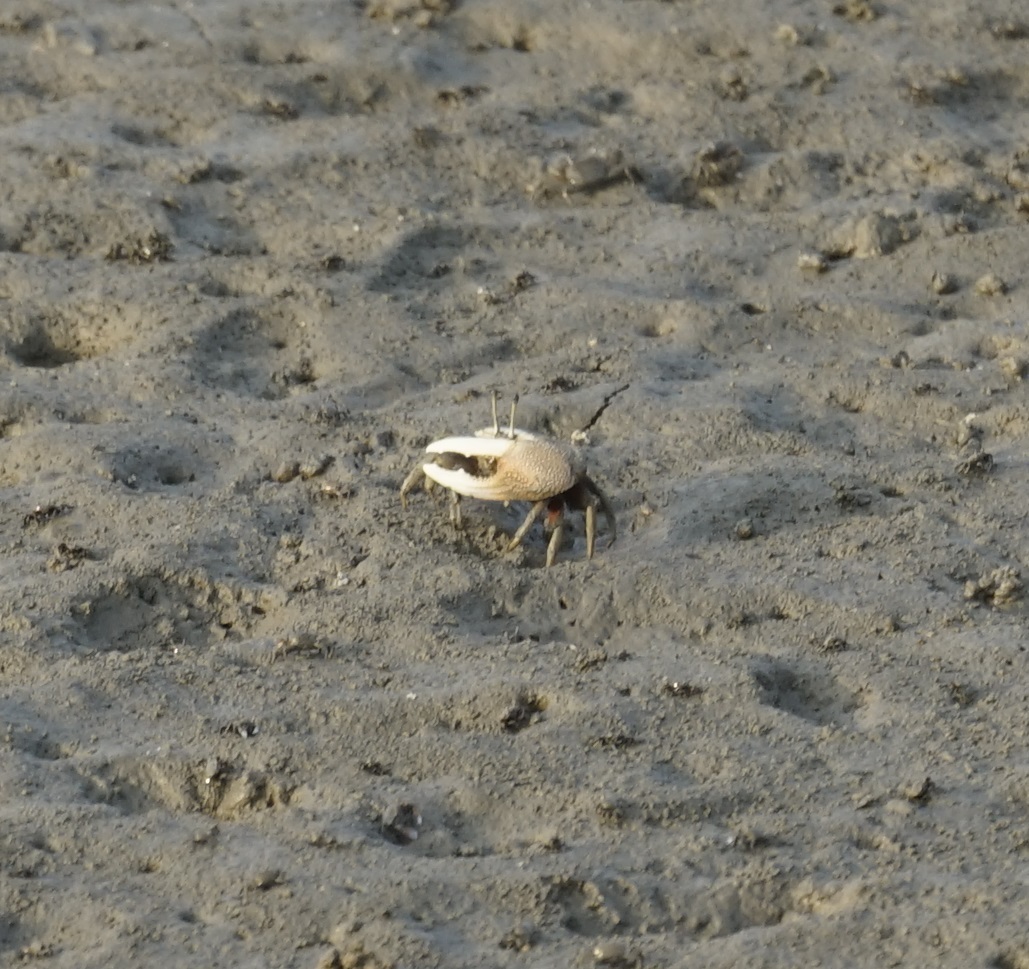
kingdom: Animalia
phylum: Arthropoda
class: Malacostraca
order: Decapoda
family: Ocypodidae
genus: Tubuca
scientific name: Tubuca arcuata
